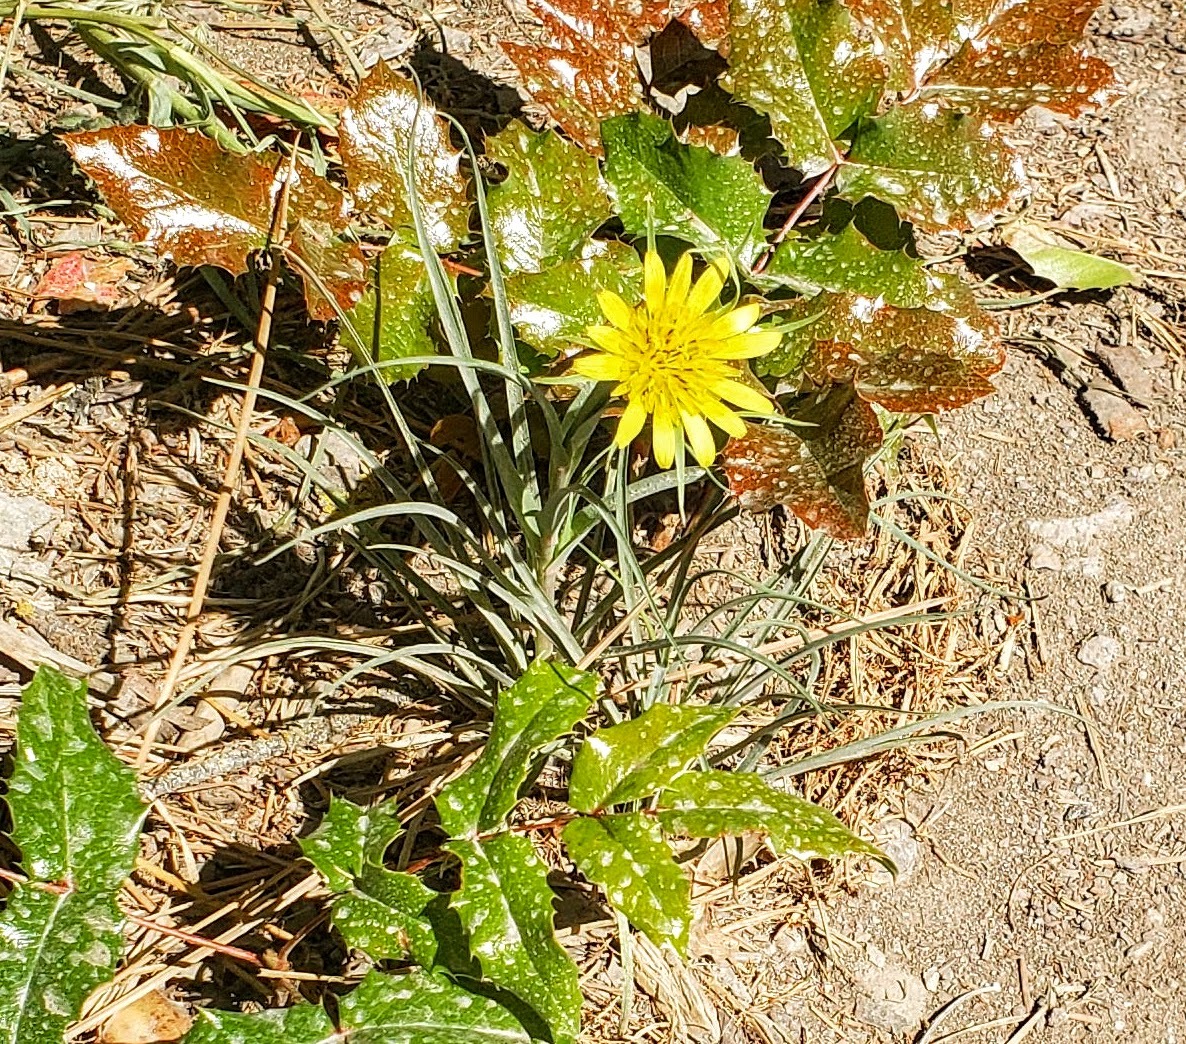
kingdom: Plantae
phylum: Tracheophyta
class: Magnoliopsida
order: Asterales
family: Asteraceae
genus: Tragopogon
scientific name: Tragopogon dubius
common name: Yellow salsify
